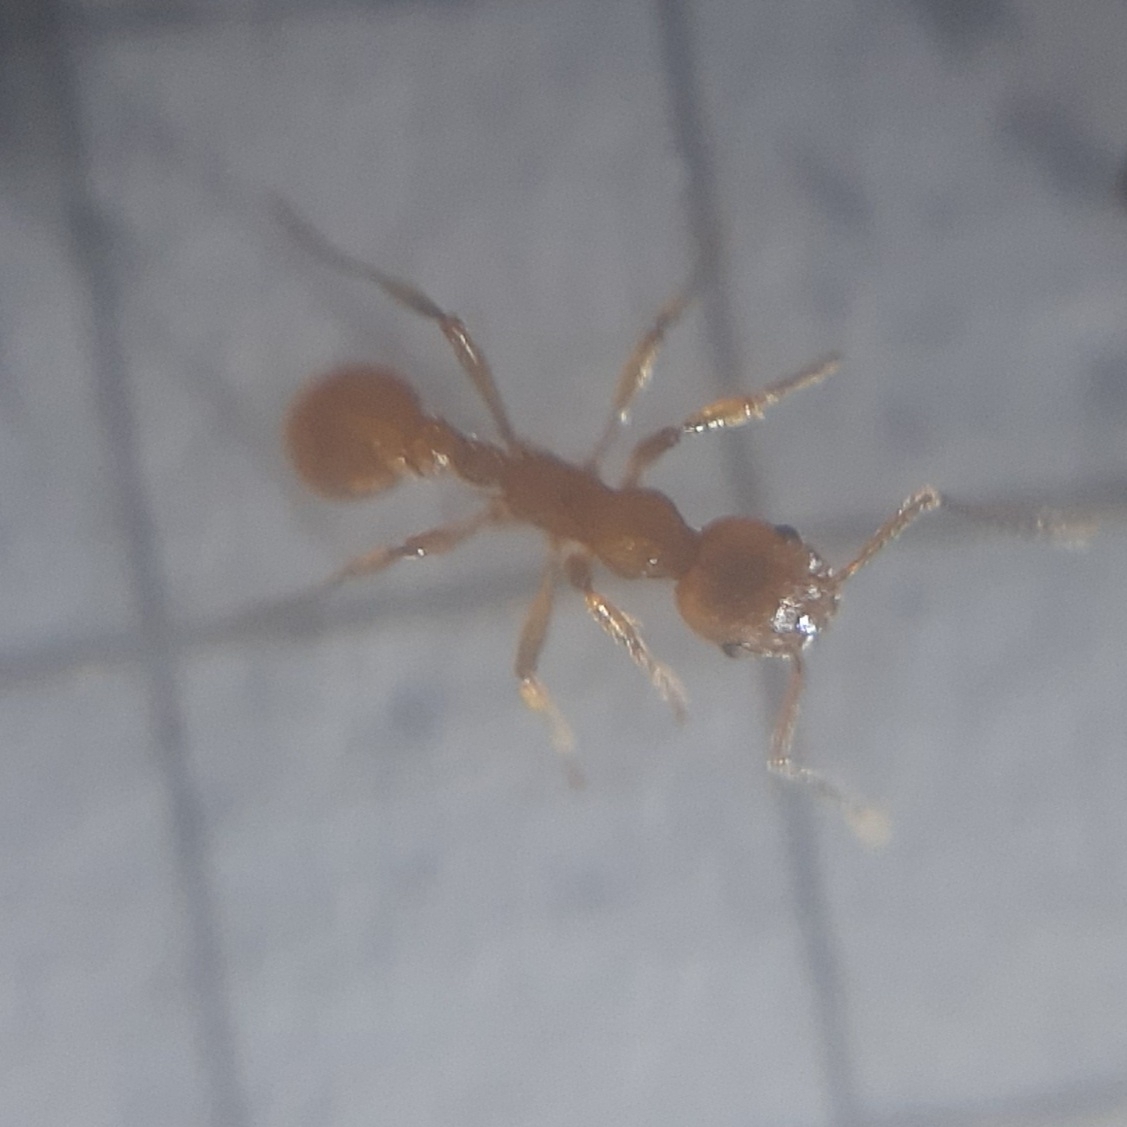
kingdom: Animalia
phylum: Arthropoda
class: Insecta
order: Hymenoptera
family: Formicidae
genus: Myrmica
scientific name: Myrmica
